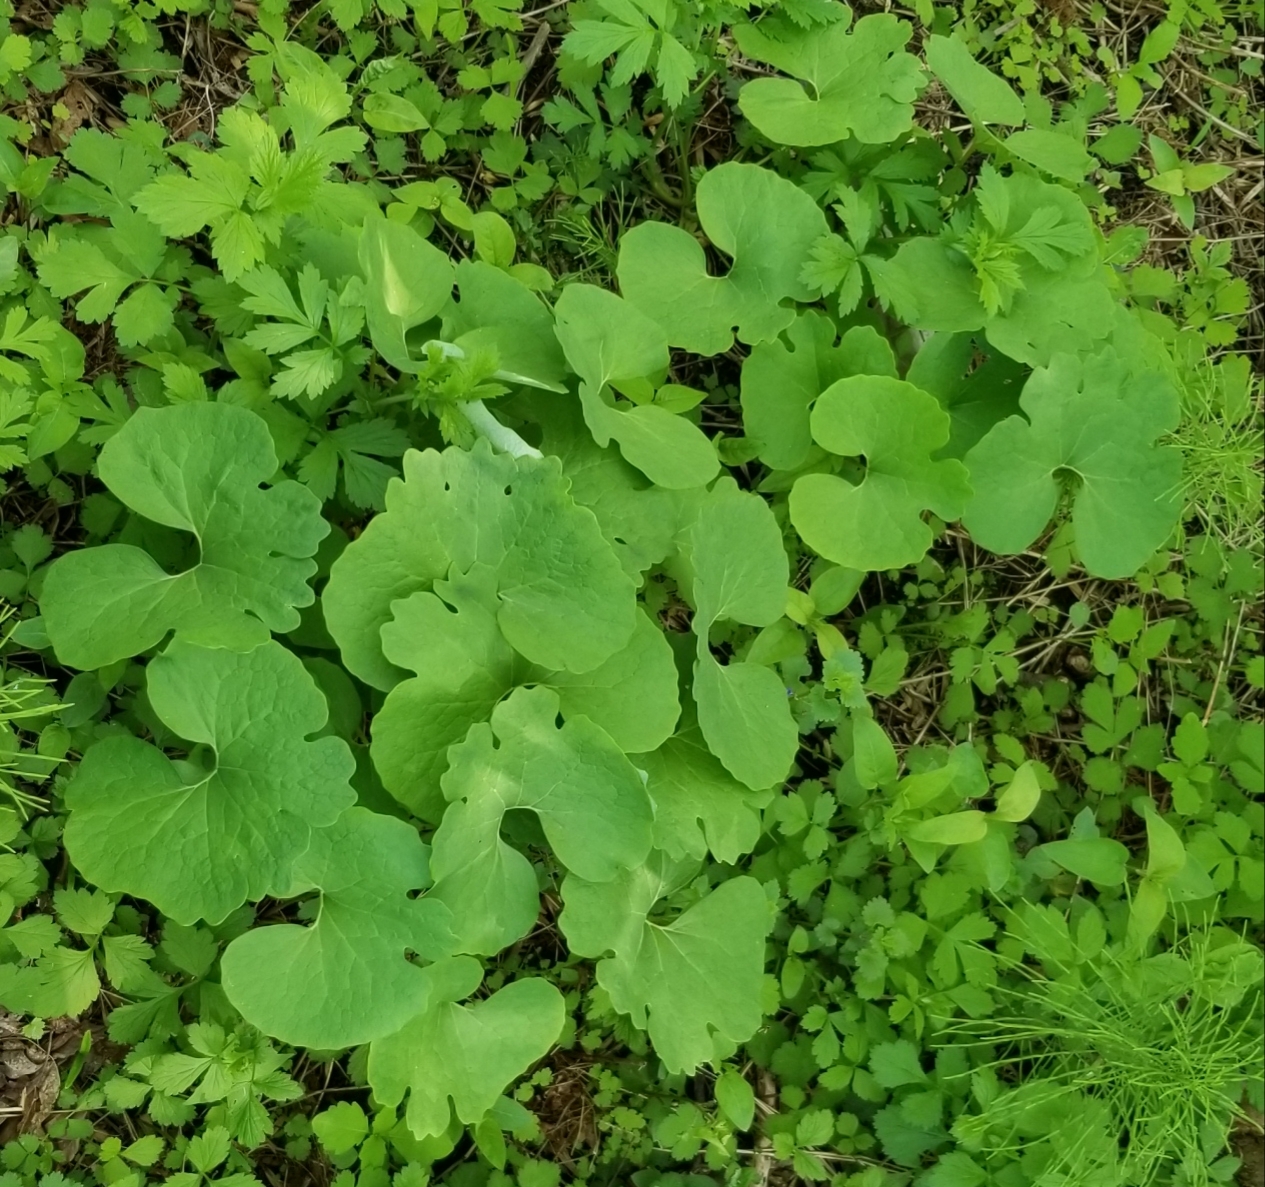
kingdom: Plantae
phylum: Tracheophyta
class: Magnoliopsida
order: Ranunculales
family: Papaveraceae
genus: Sanguinaria
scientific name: Sanguinaria canadensis
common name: Bloodroot
